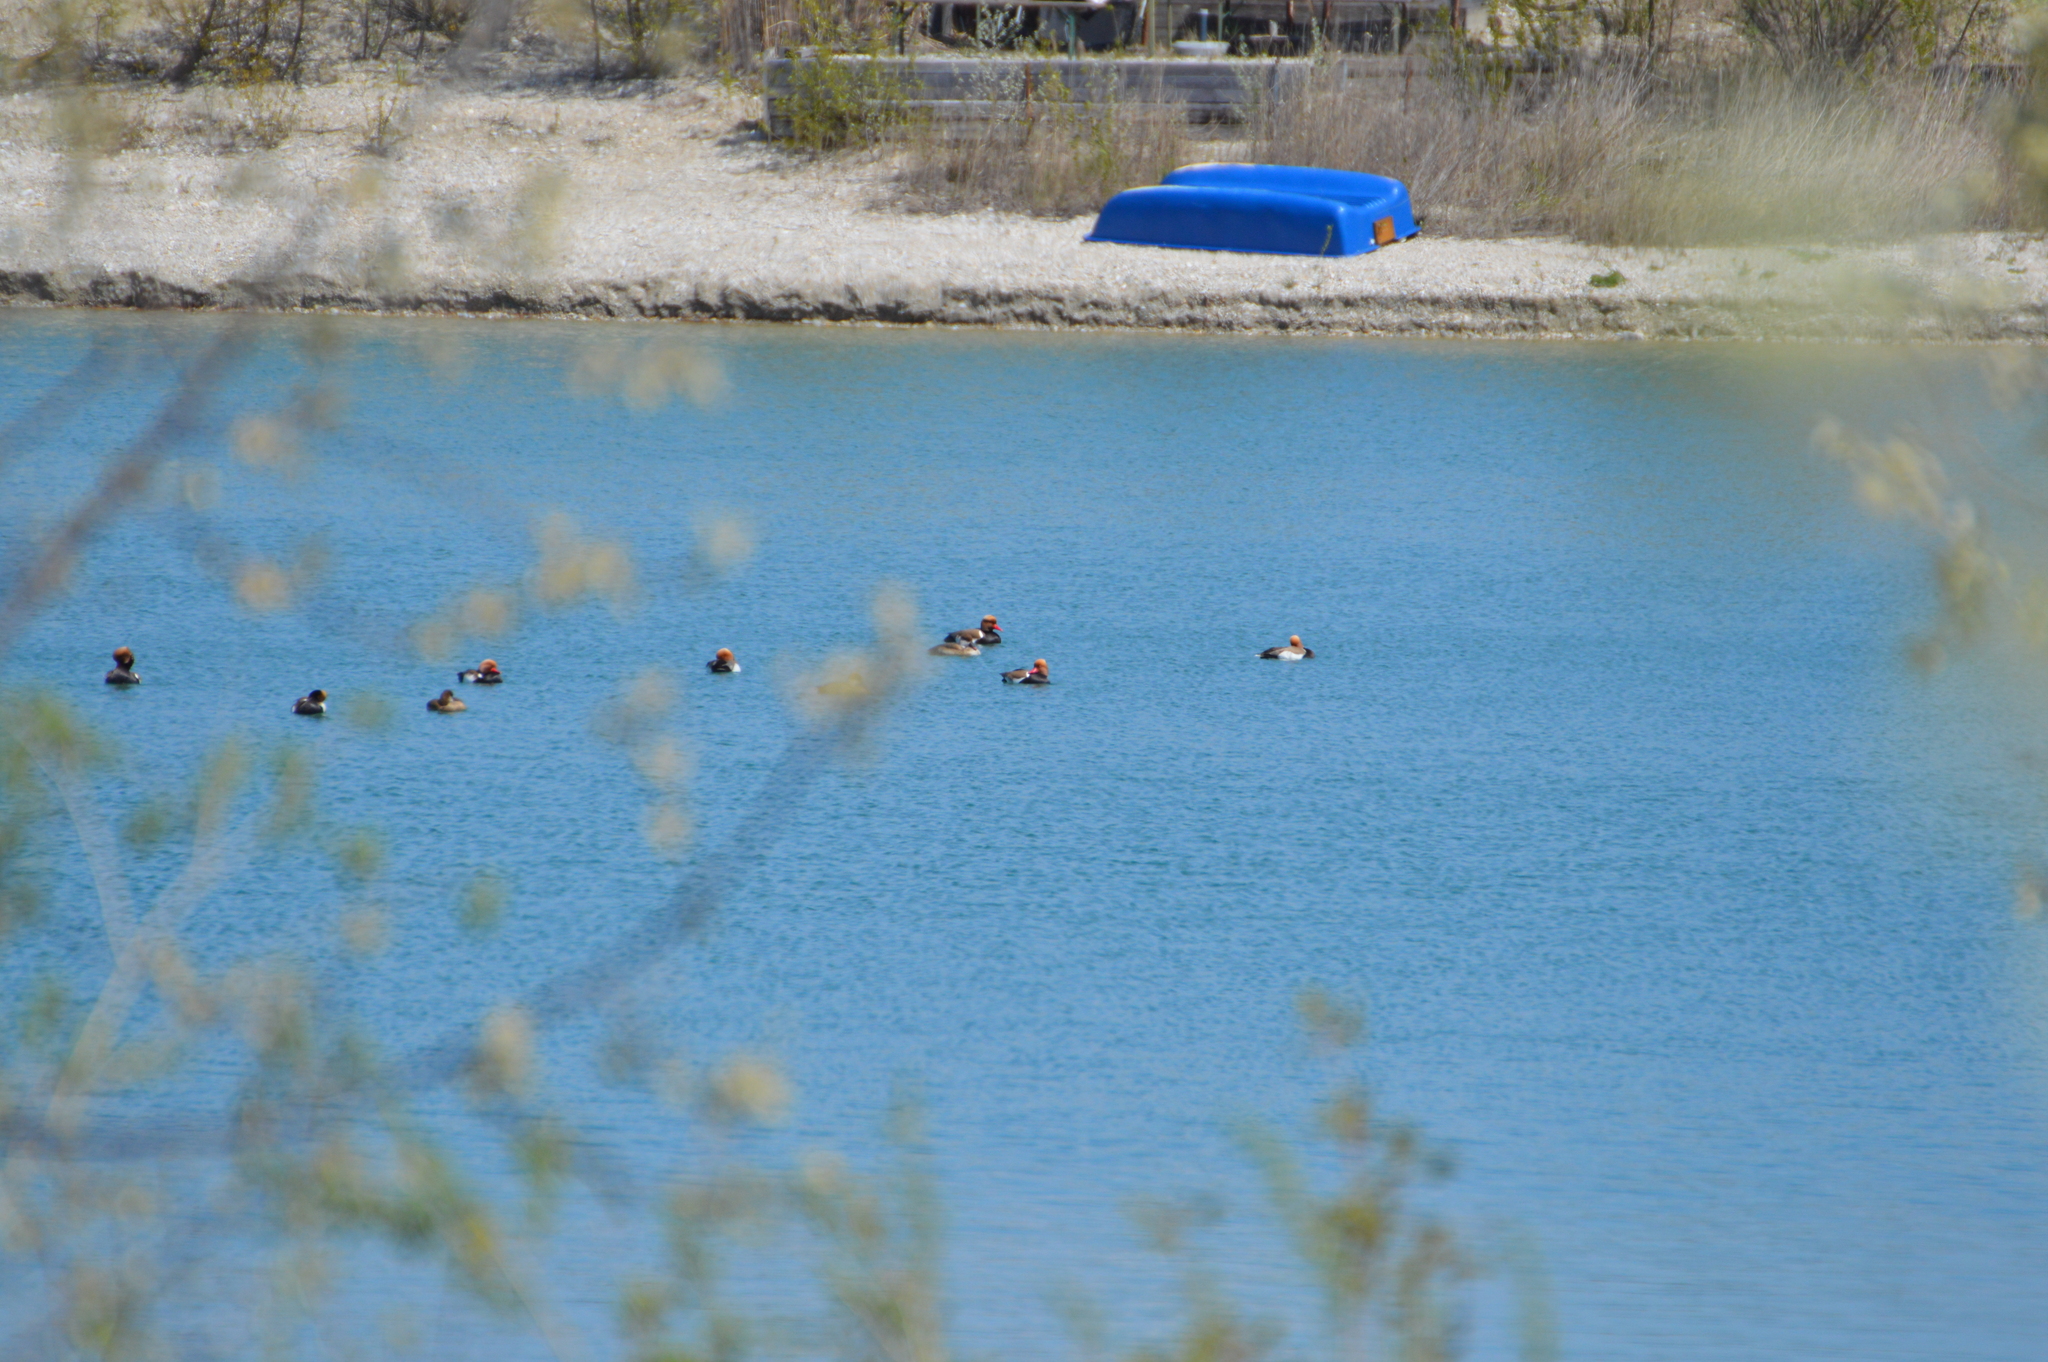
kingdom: Animalia
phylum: Chordata
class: Aves
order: Anseriformes
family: Anatidae
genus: Netta
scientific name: Netta rufina
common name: Red-crested pochard
